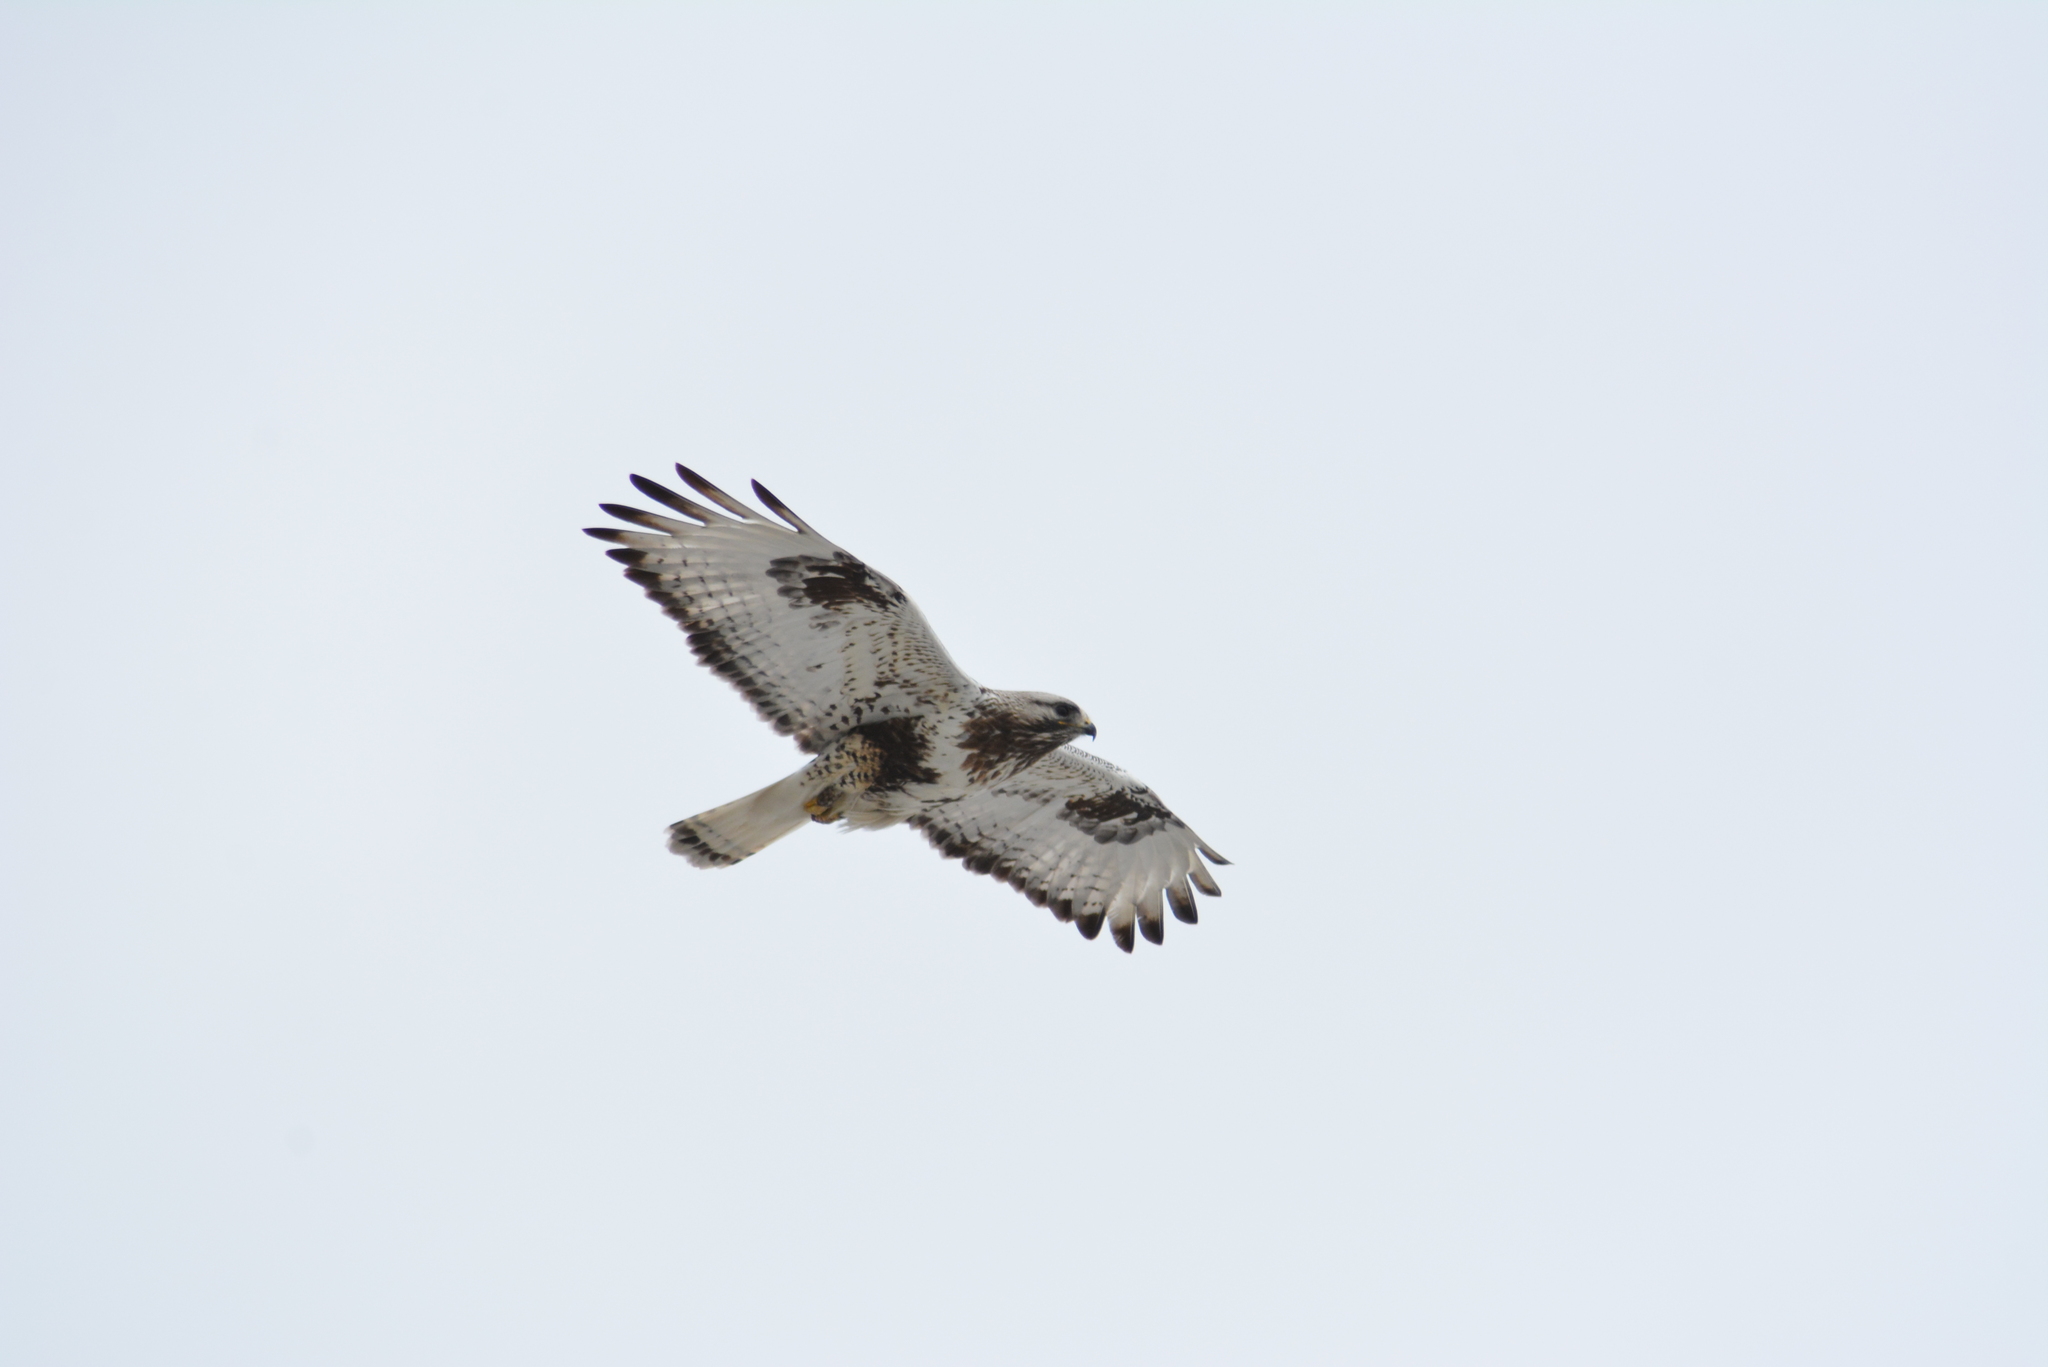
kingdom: Animalia
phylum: Chordata
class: Aves
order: Accipitriformes
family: Accipitridae
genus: Buteo
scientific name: Buteo lagopus
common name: Rough-legged buzzard
